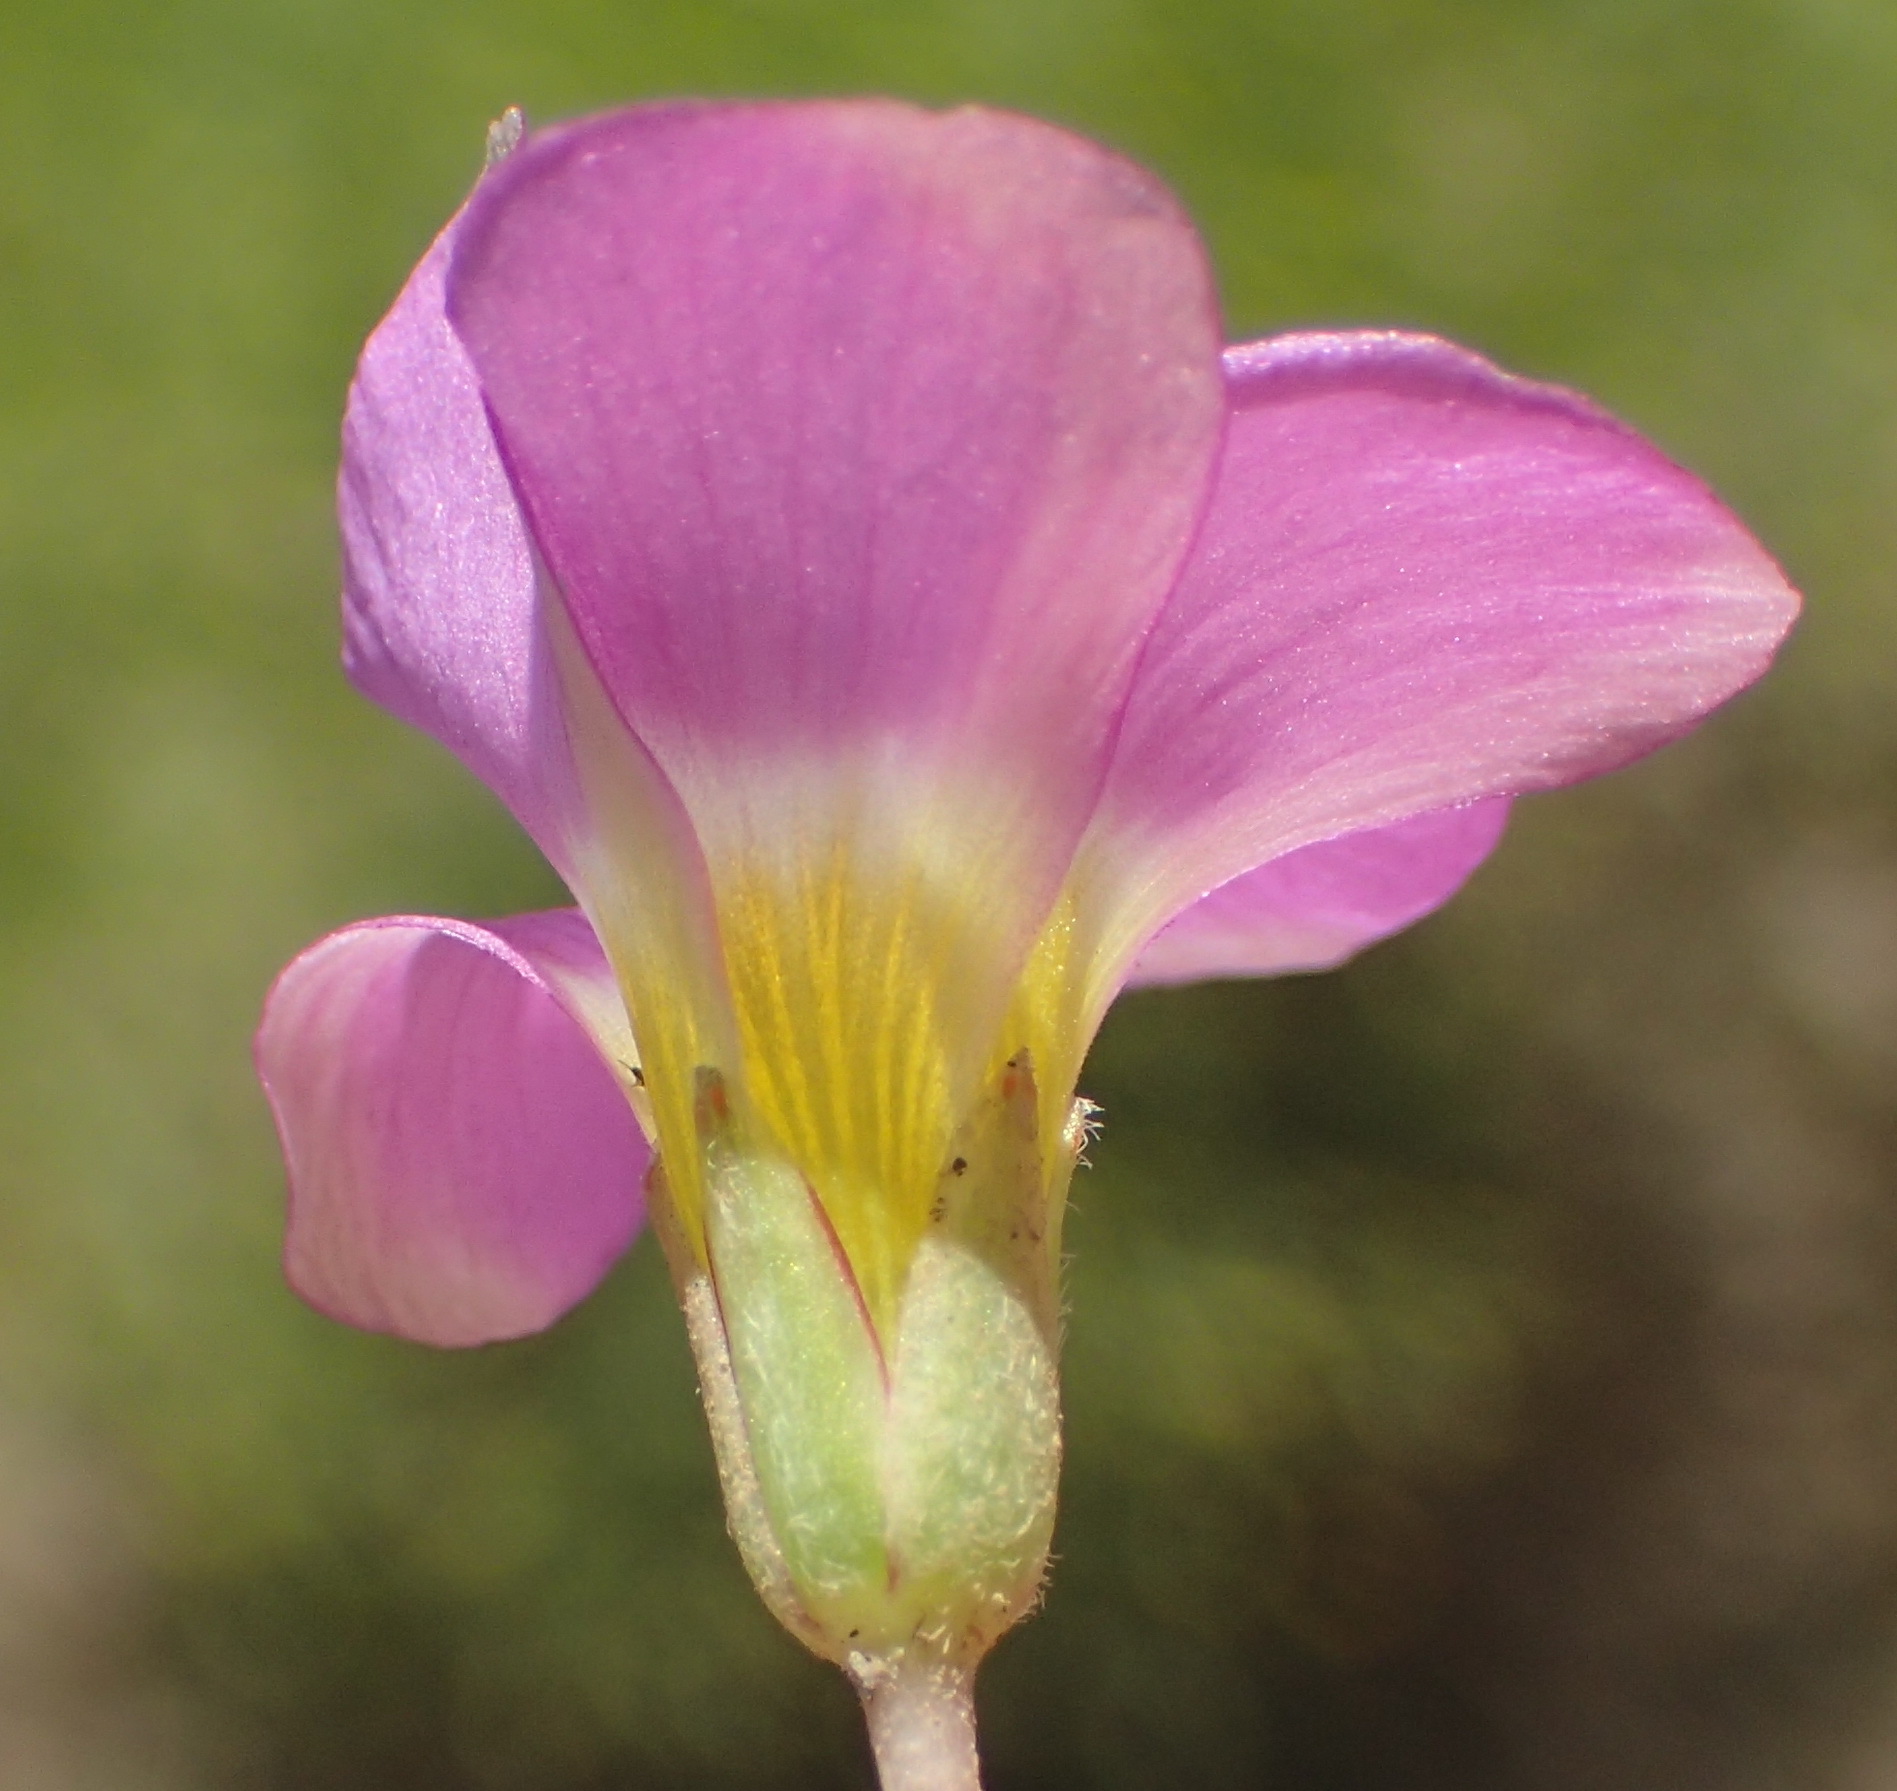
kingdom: Plantae
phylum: Tracheophyta
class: Magnoliopsida
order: Oxalidales
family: Oxalidaceae
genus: Oxalis
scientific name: Oxalis obliquifolia
